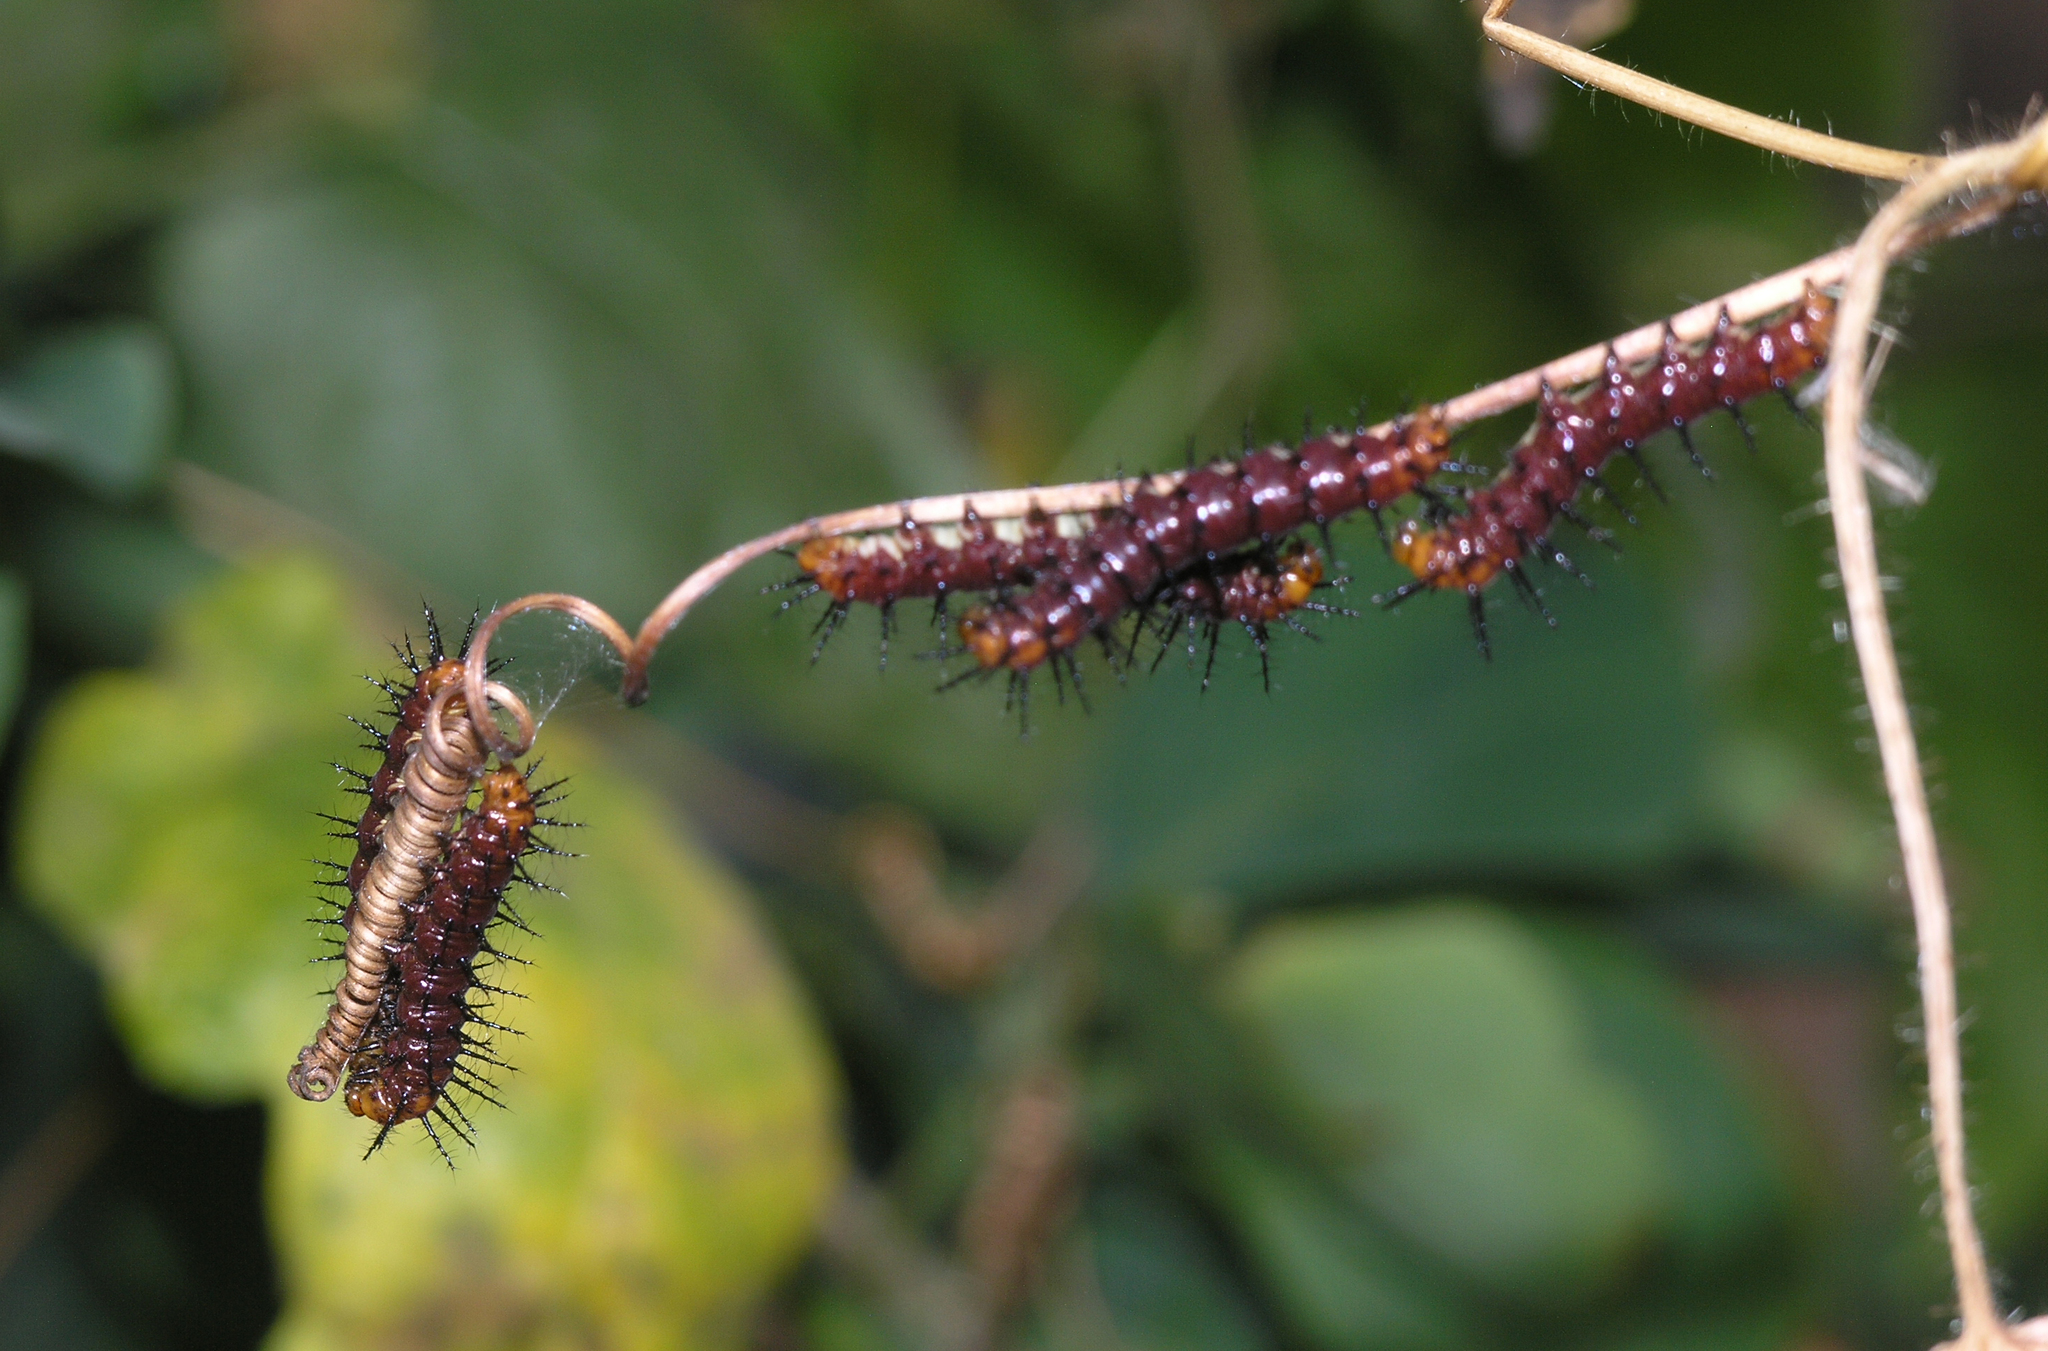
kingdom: Animalia
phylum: Arthropoda
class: Insecta
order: Lepidoptera
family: Nymphalidae
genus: Acraea
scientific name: Acraea terpsicore
